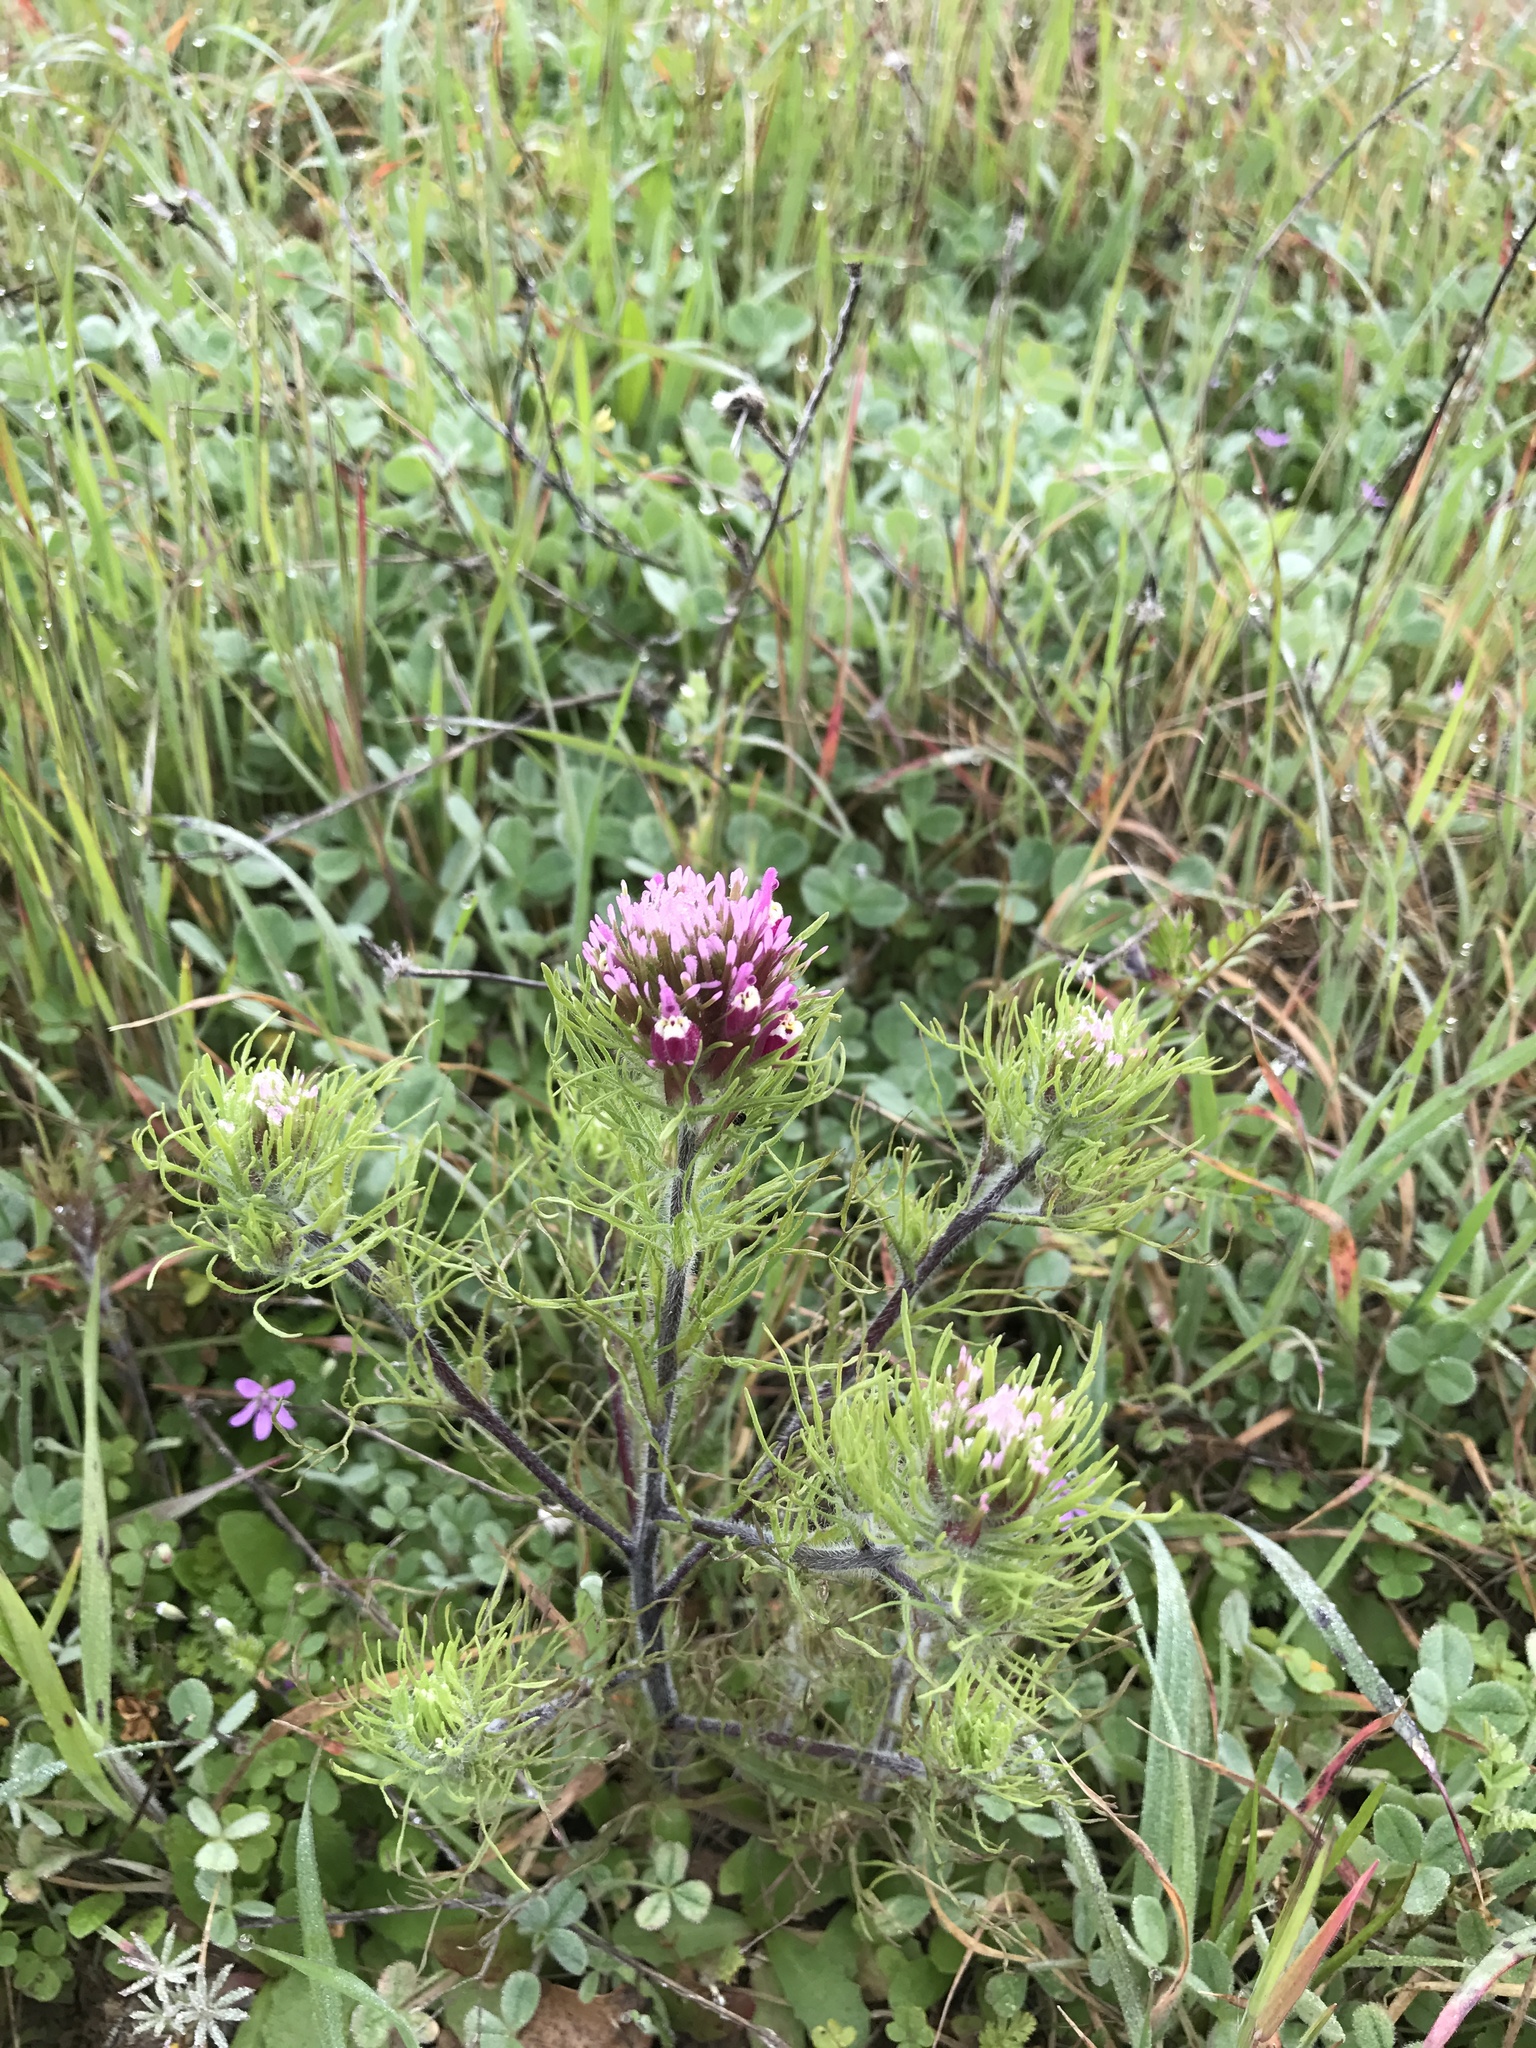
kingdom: Plantae
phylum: Tracheophyta
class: Magnoliopsida
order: Lamiales
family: Orobanchaceae
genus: Castilleja
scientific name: Castilleja exserta
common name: Purple owl-clover
